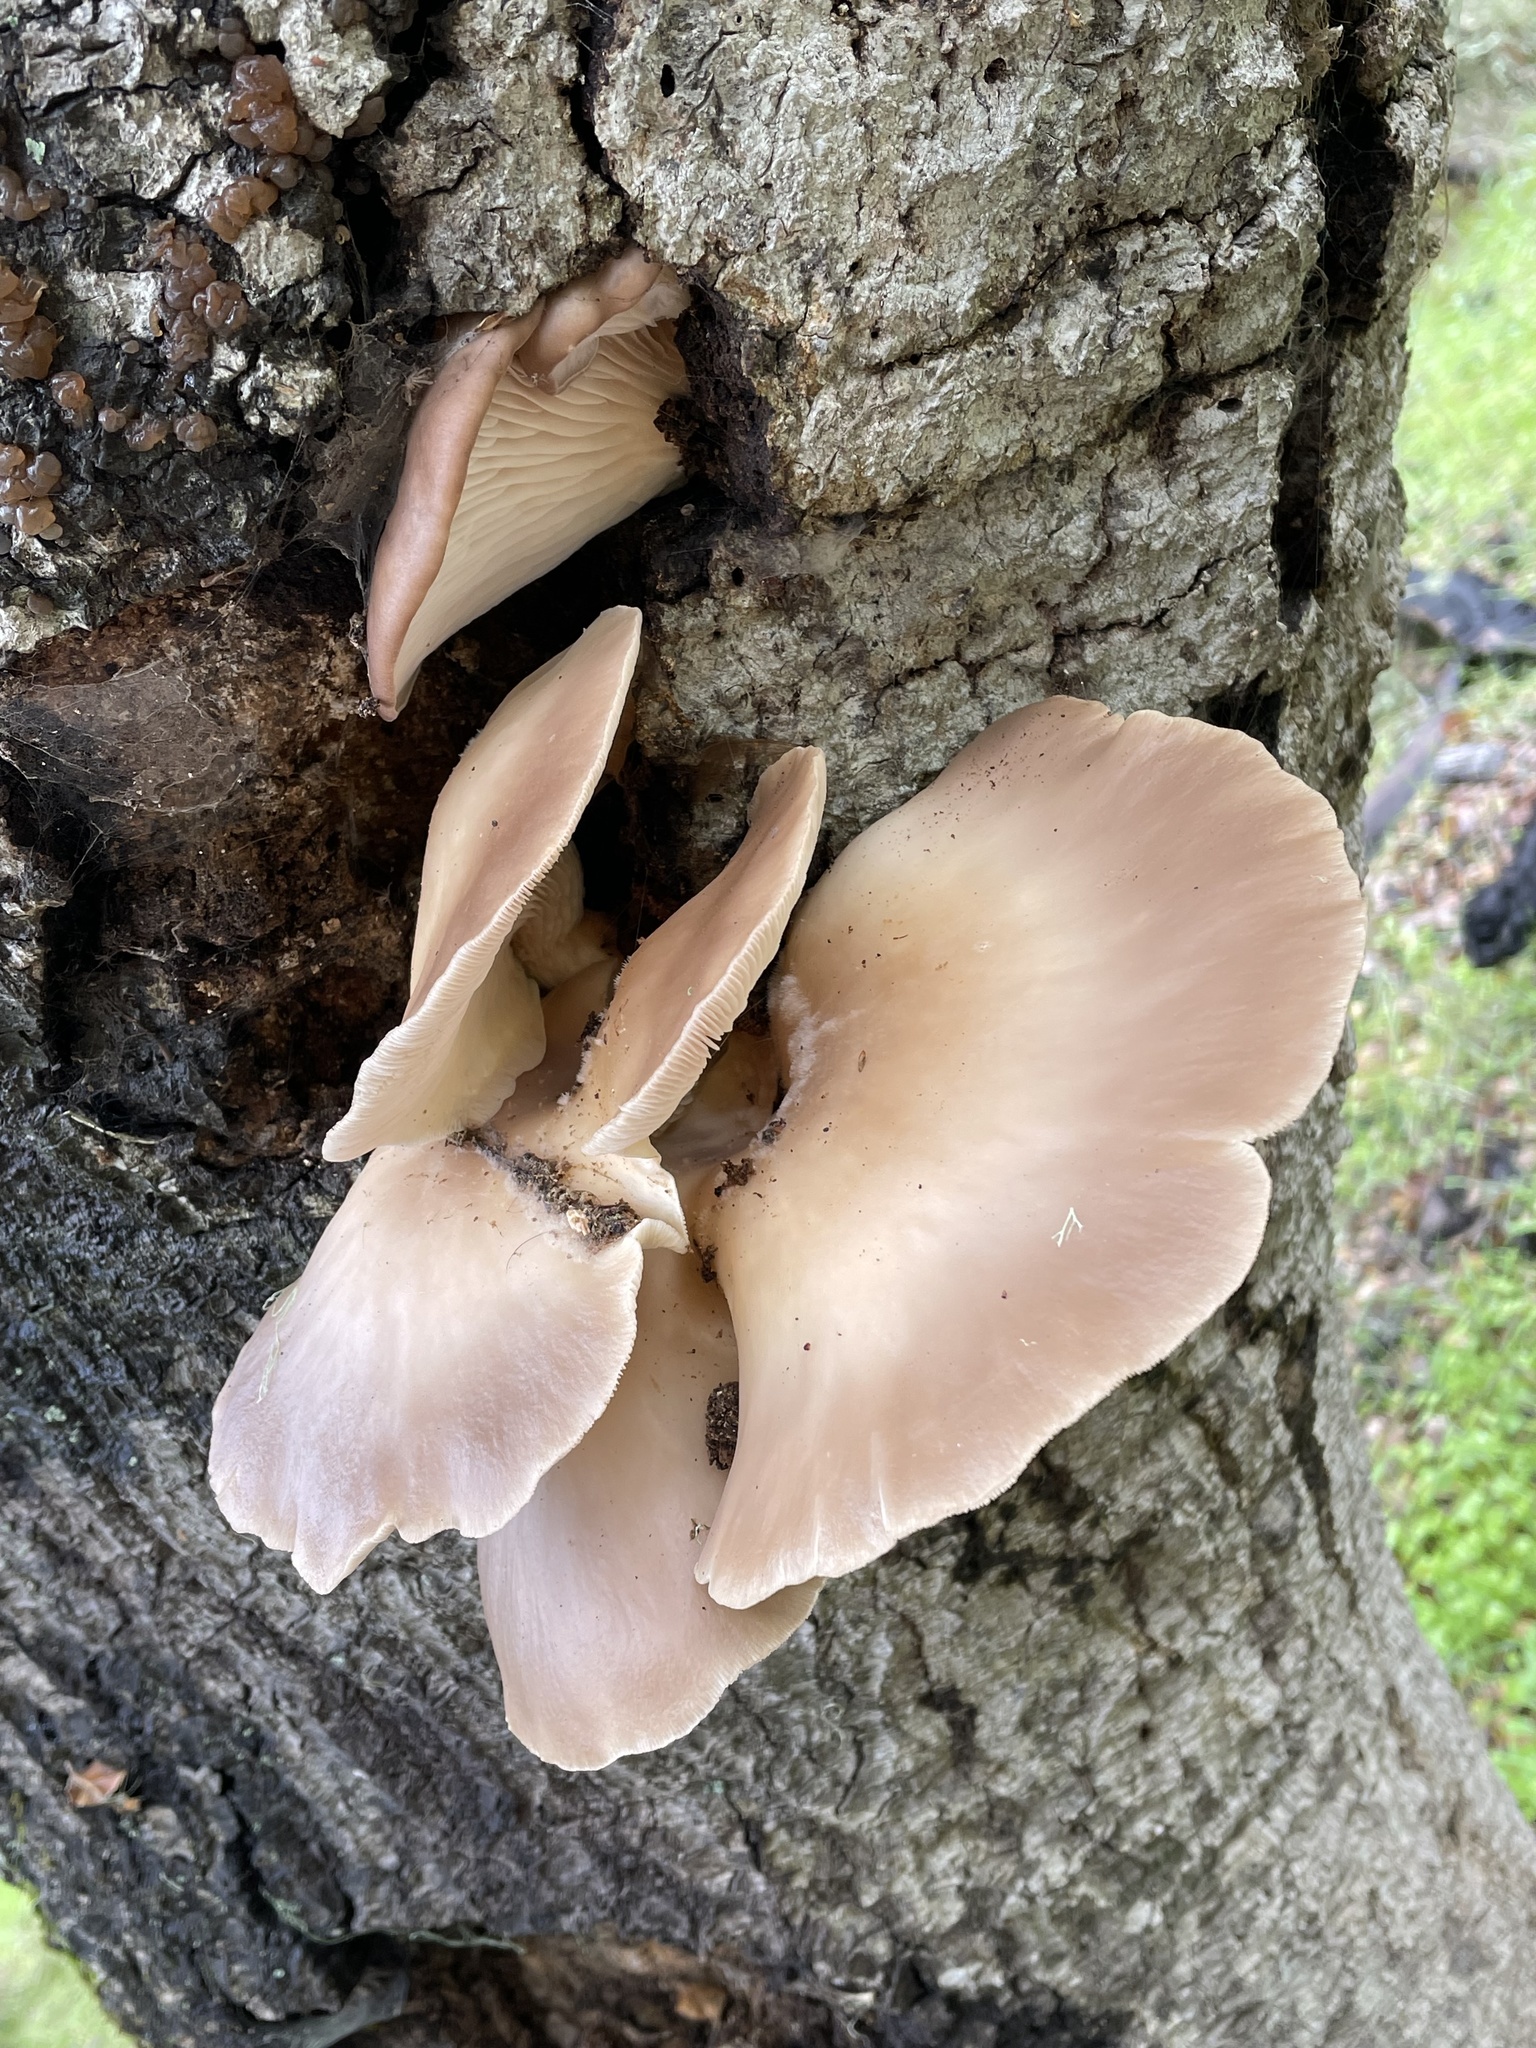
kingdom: Fungi
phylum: Basidiomycota
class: Agaricomycetes
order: Agaricales
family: Pleurotaceae
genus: Pleurotus
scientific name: Pleurotus ostreatus
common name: Oyster mushroom
